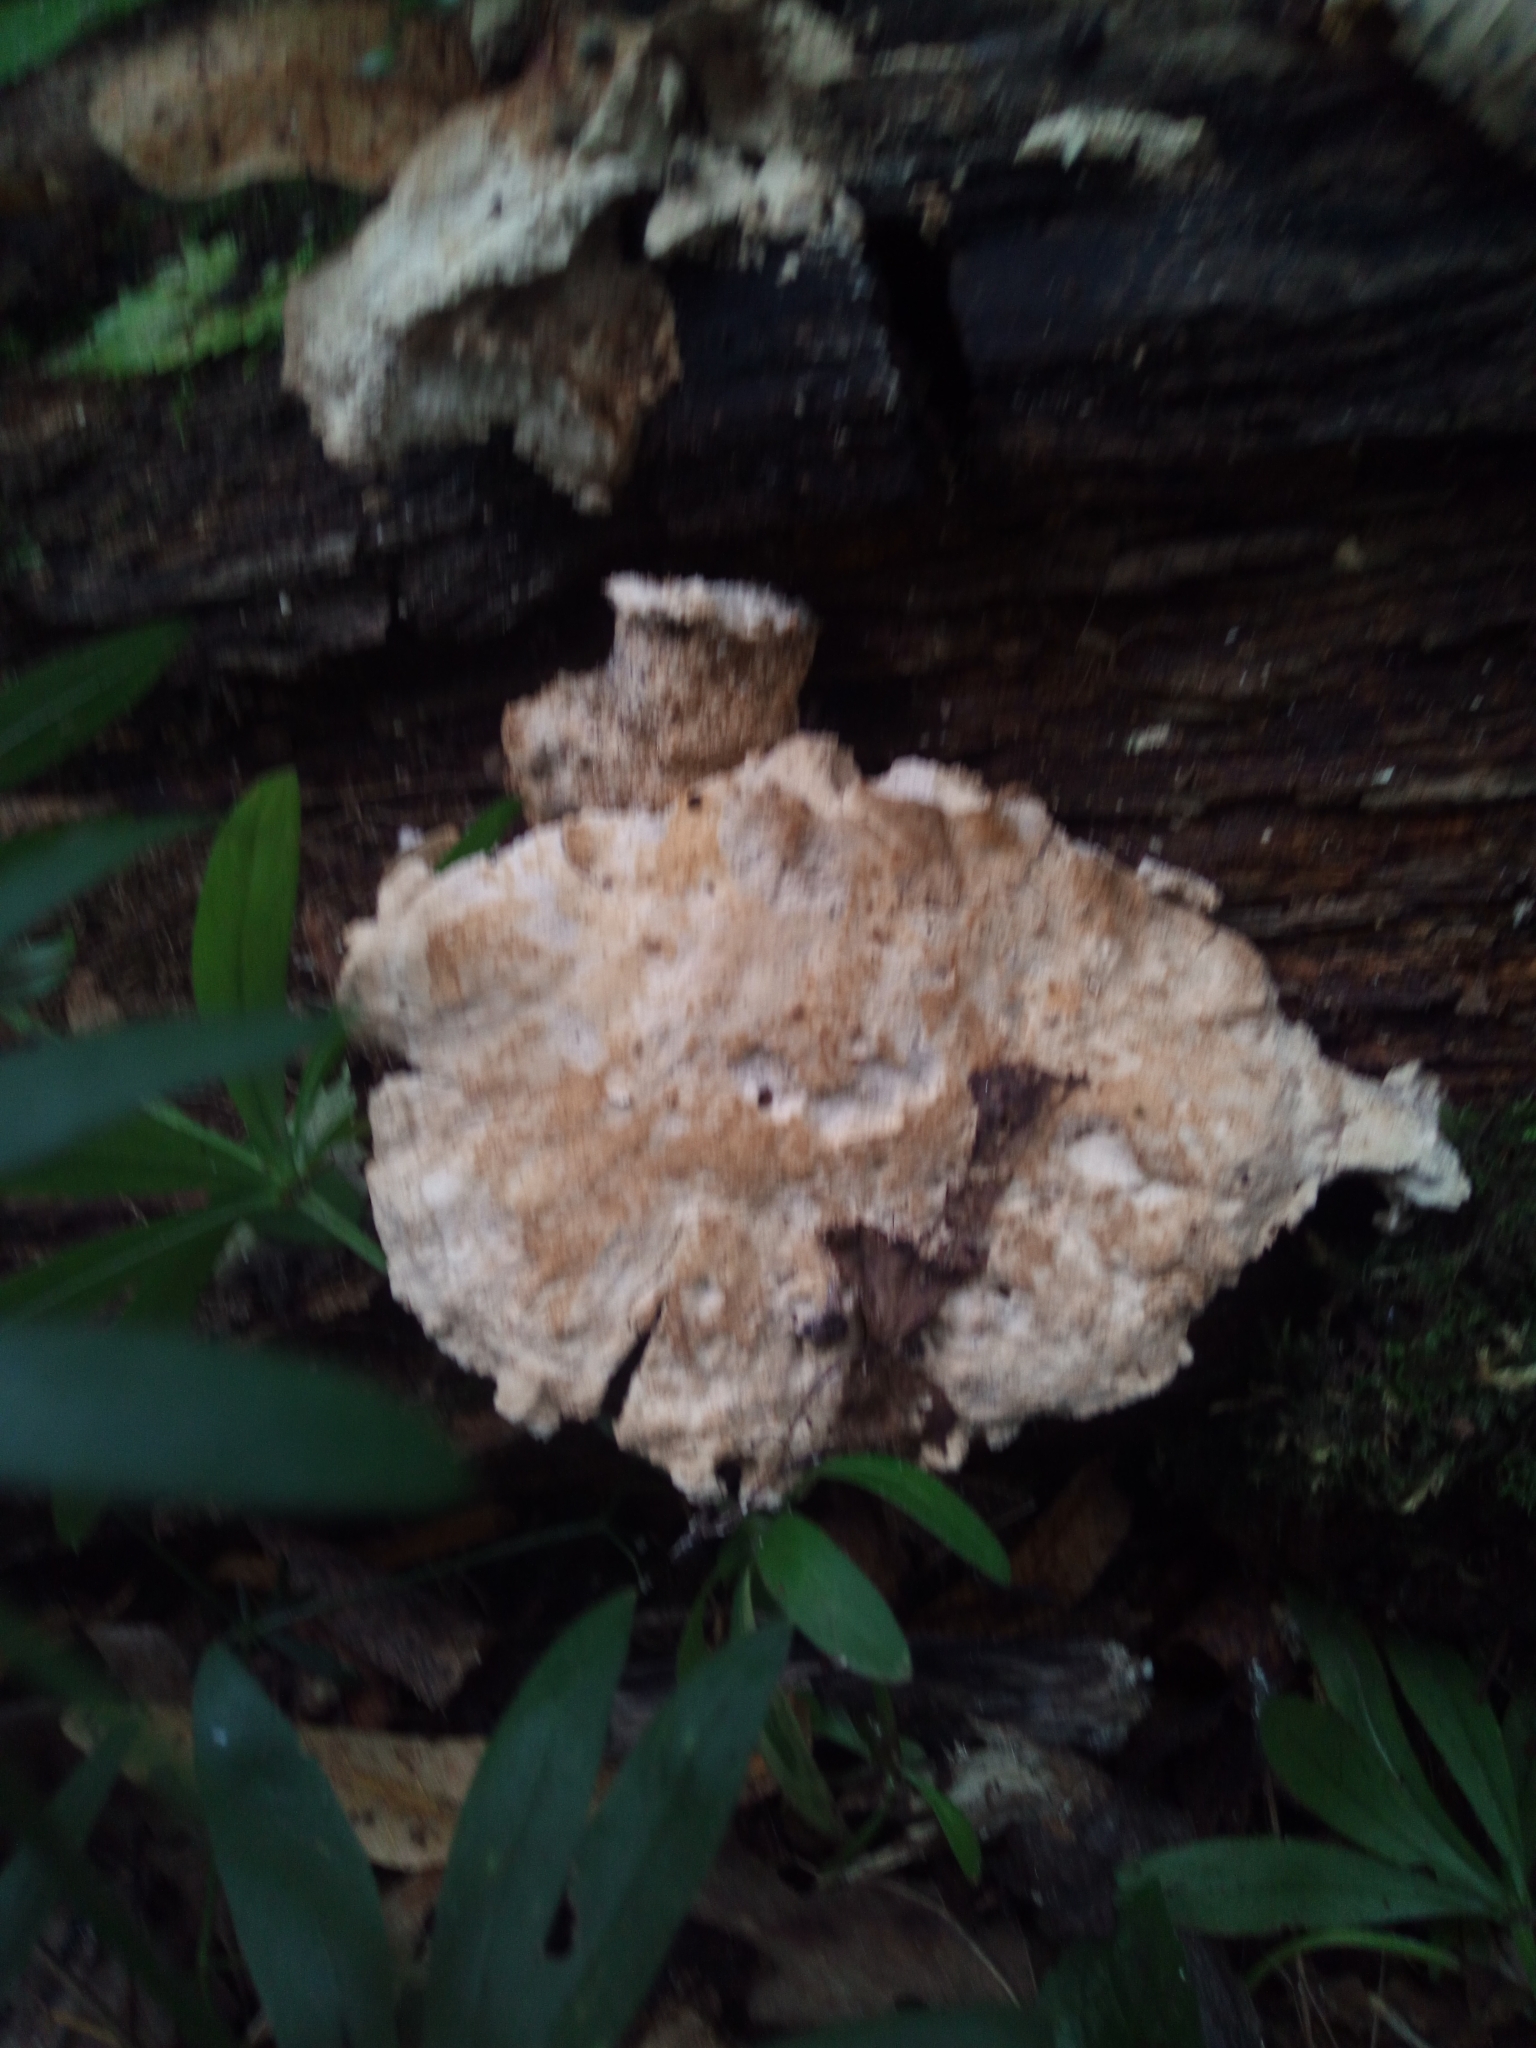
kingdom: Fungi
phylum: Basidiomycota
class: Agaricomycetes
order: Polyporales
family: Laetiporaceae
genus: Laetiporus
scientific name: Laetiporus sulphureus
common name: Chicken of the woods
